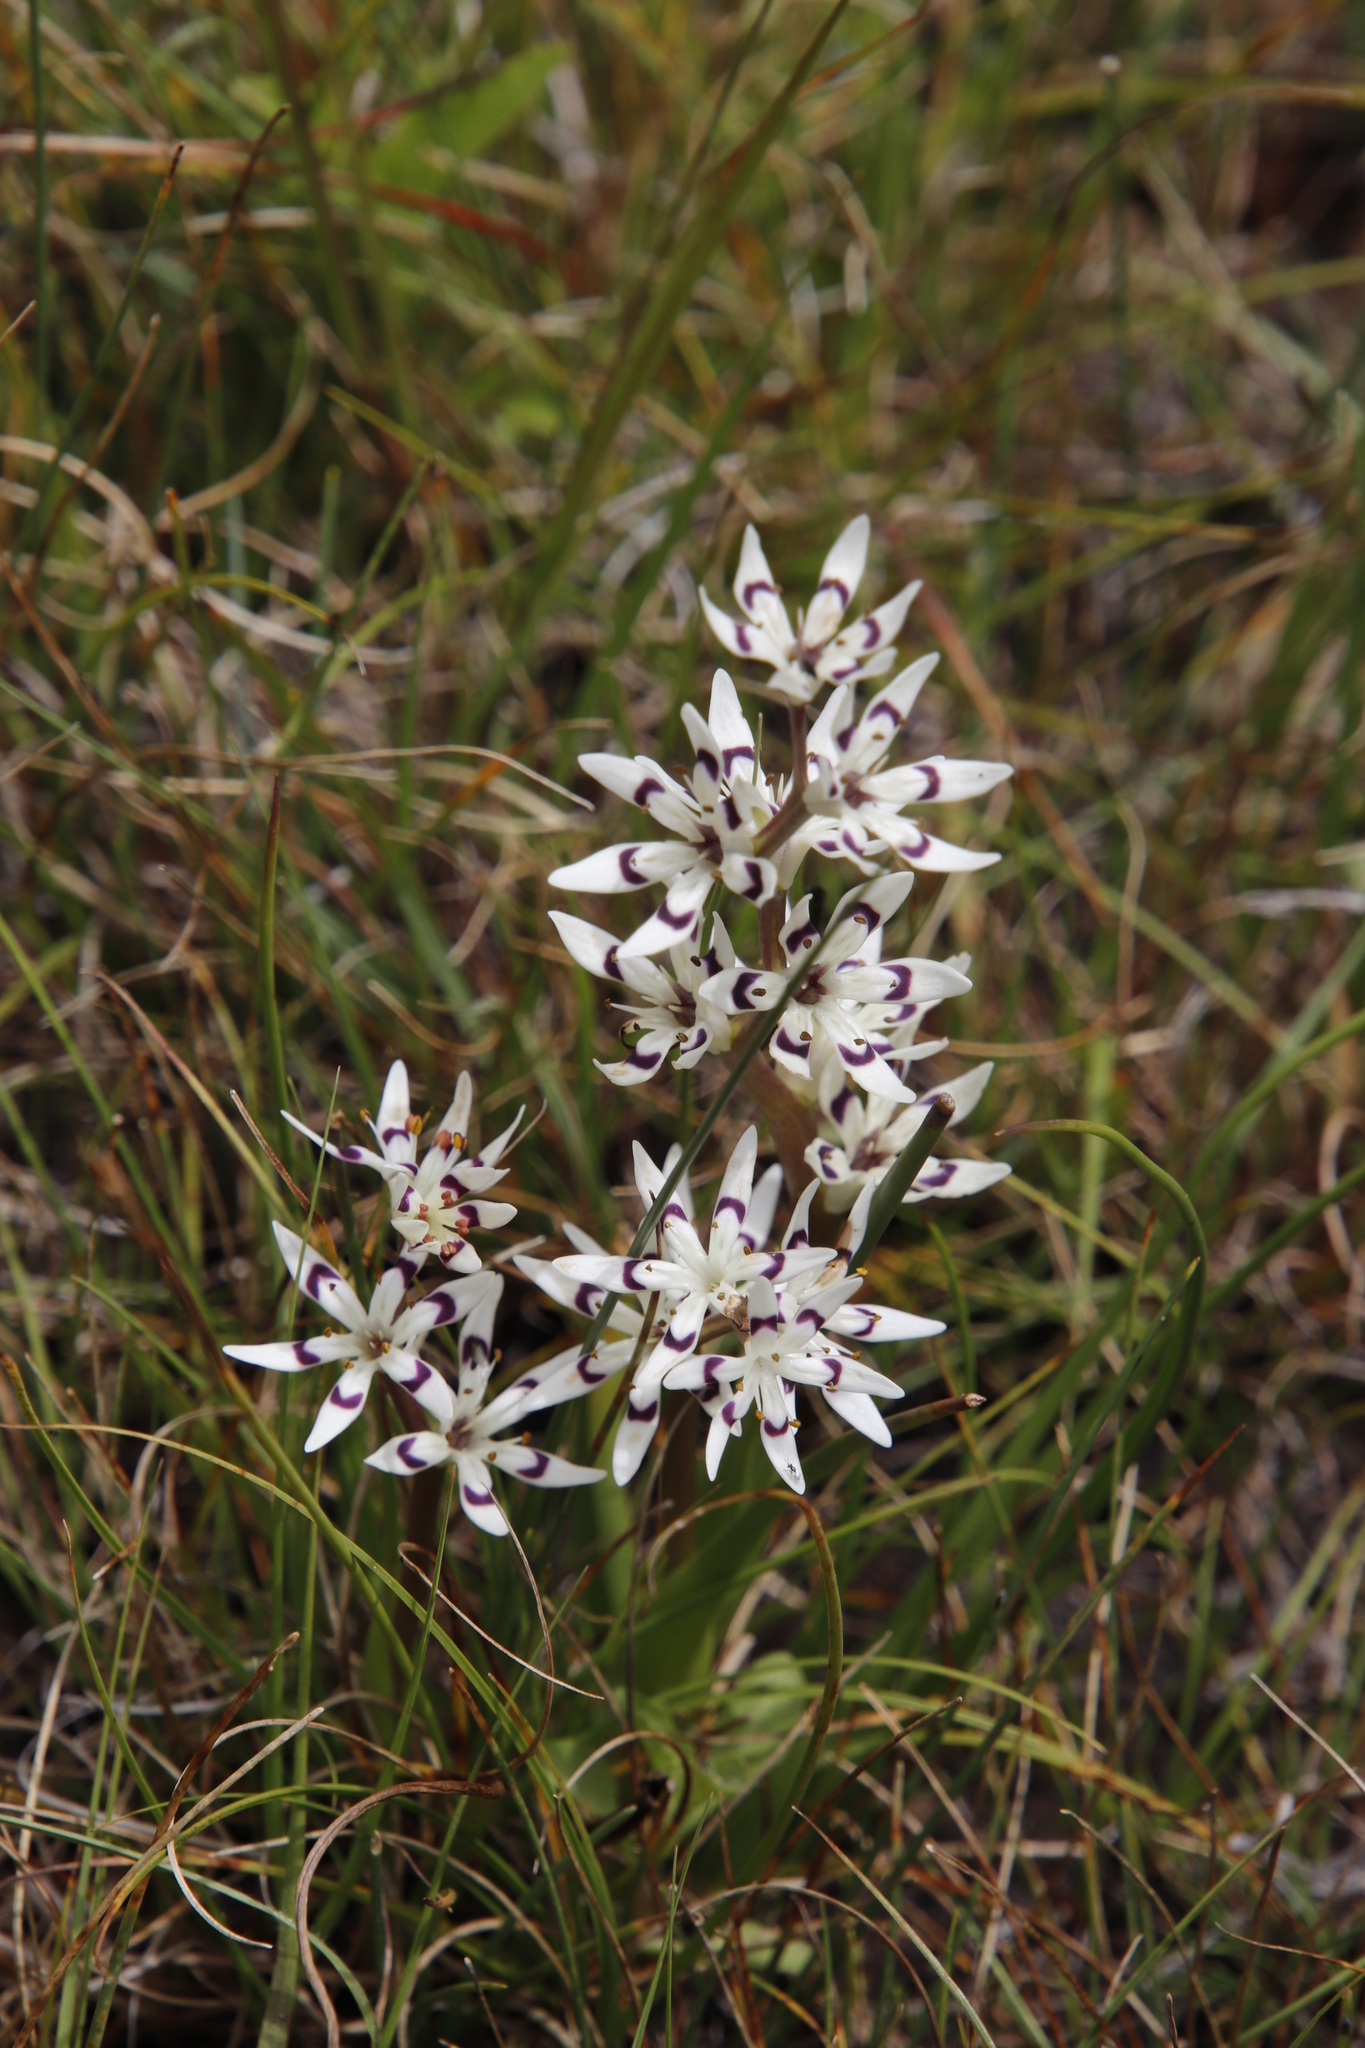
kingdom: Plantae
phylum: Tracheophyta
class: Liliopsida
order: Liliales
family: Colchicaceae
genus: Wurmbea
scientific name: Wurmbea elatior
